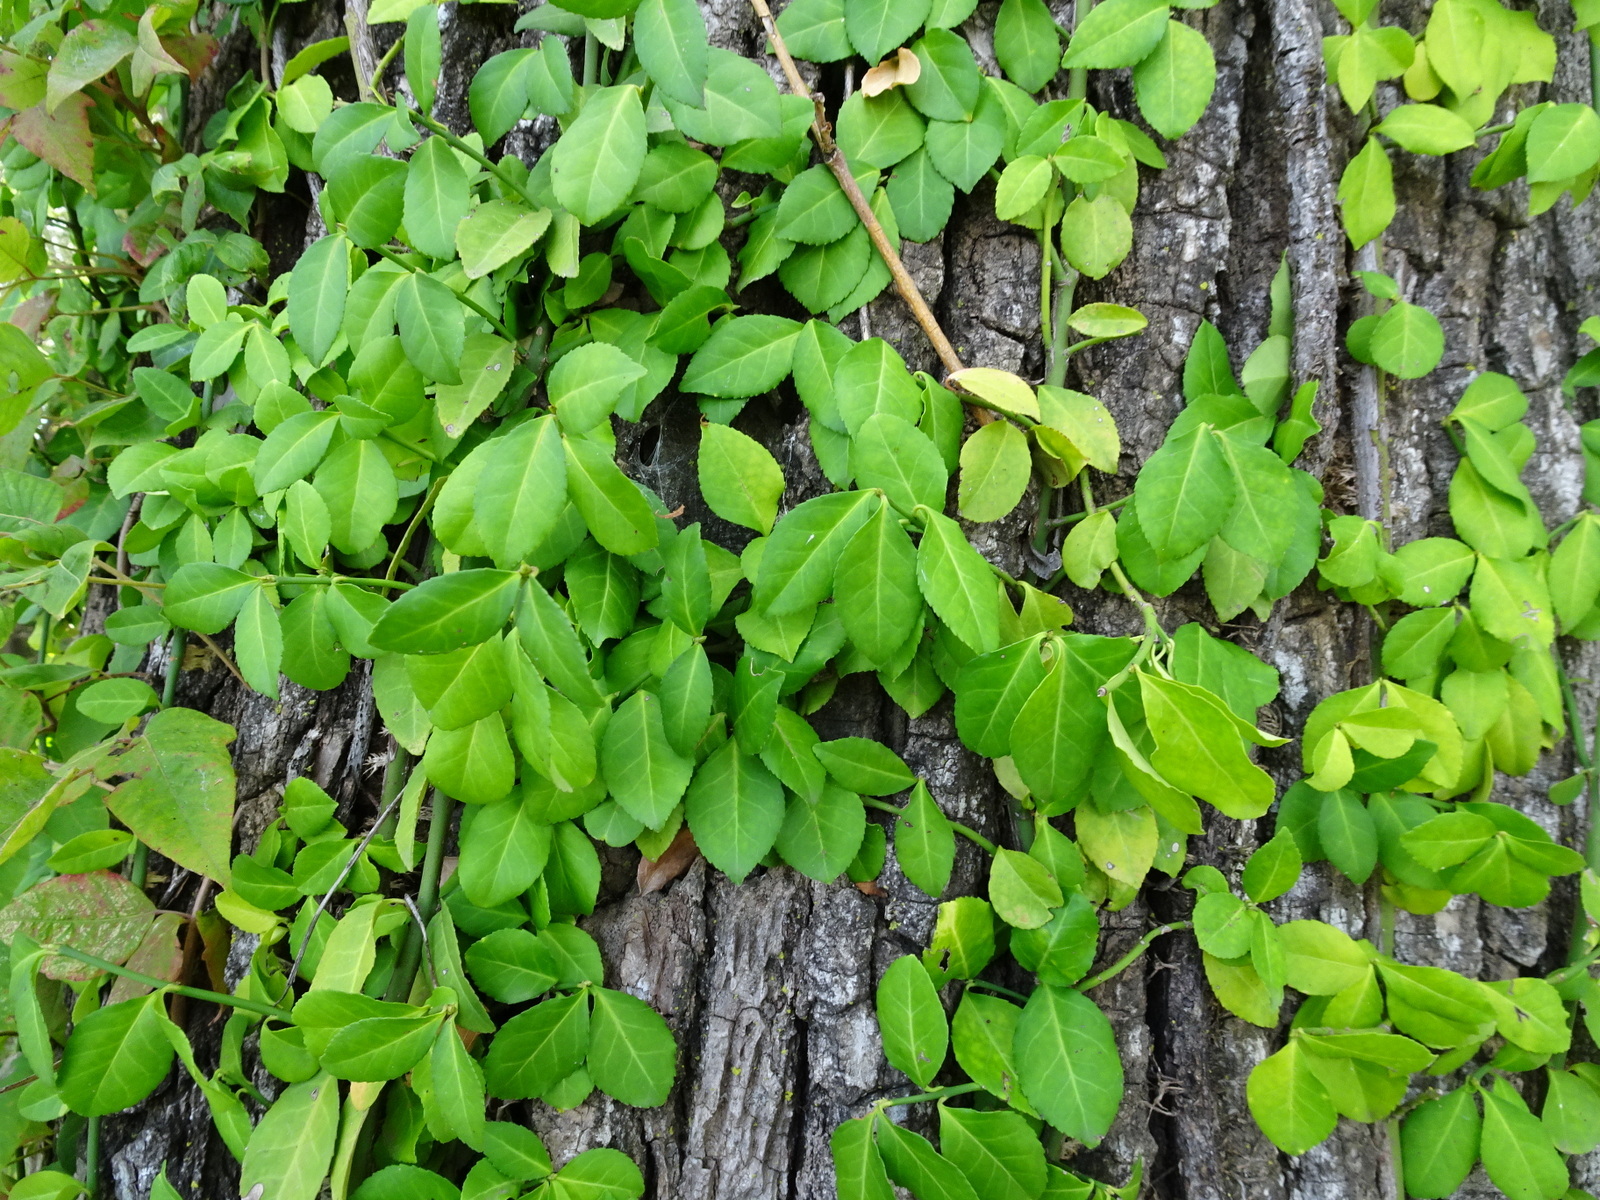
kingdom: Plantae
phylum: Tracheophyta
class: Magnoliopsida
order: Celastrales
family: Celastraceae
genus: Euonymus
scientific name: Euonymus fortunei
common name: Climbing euonymus
